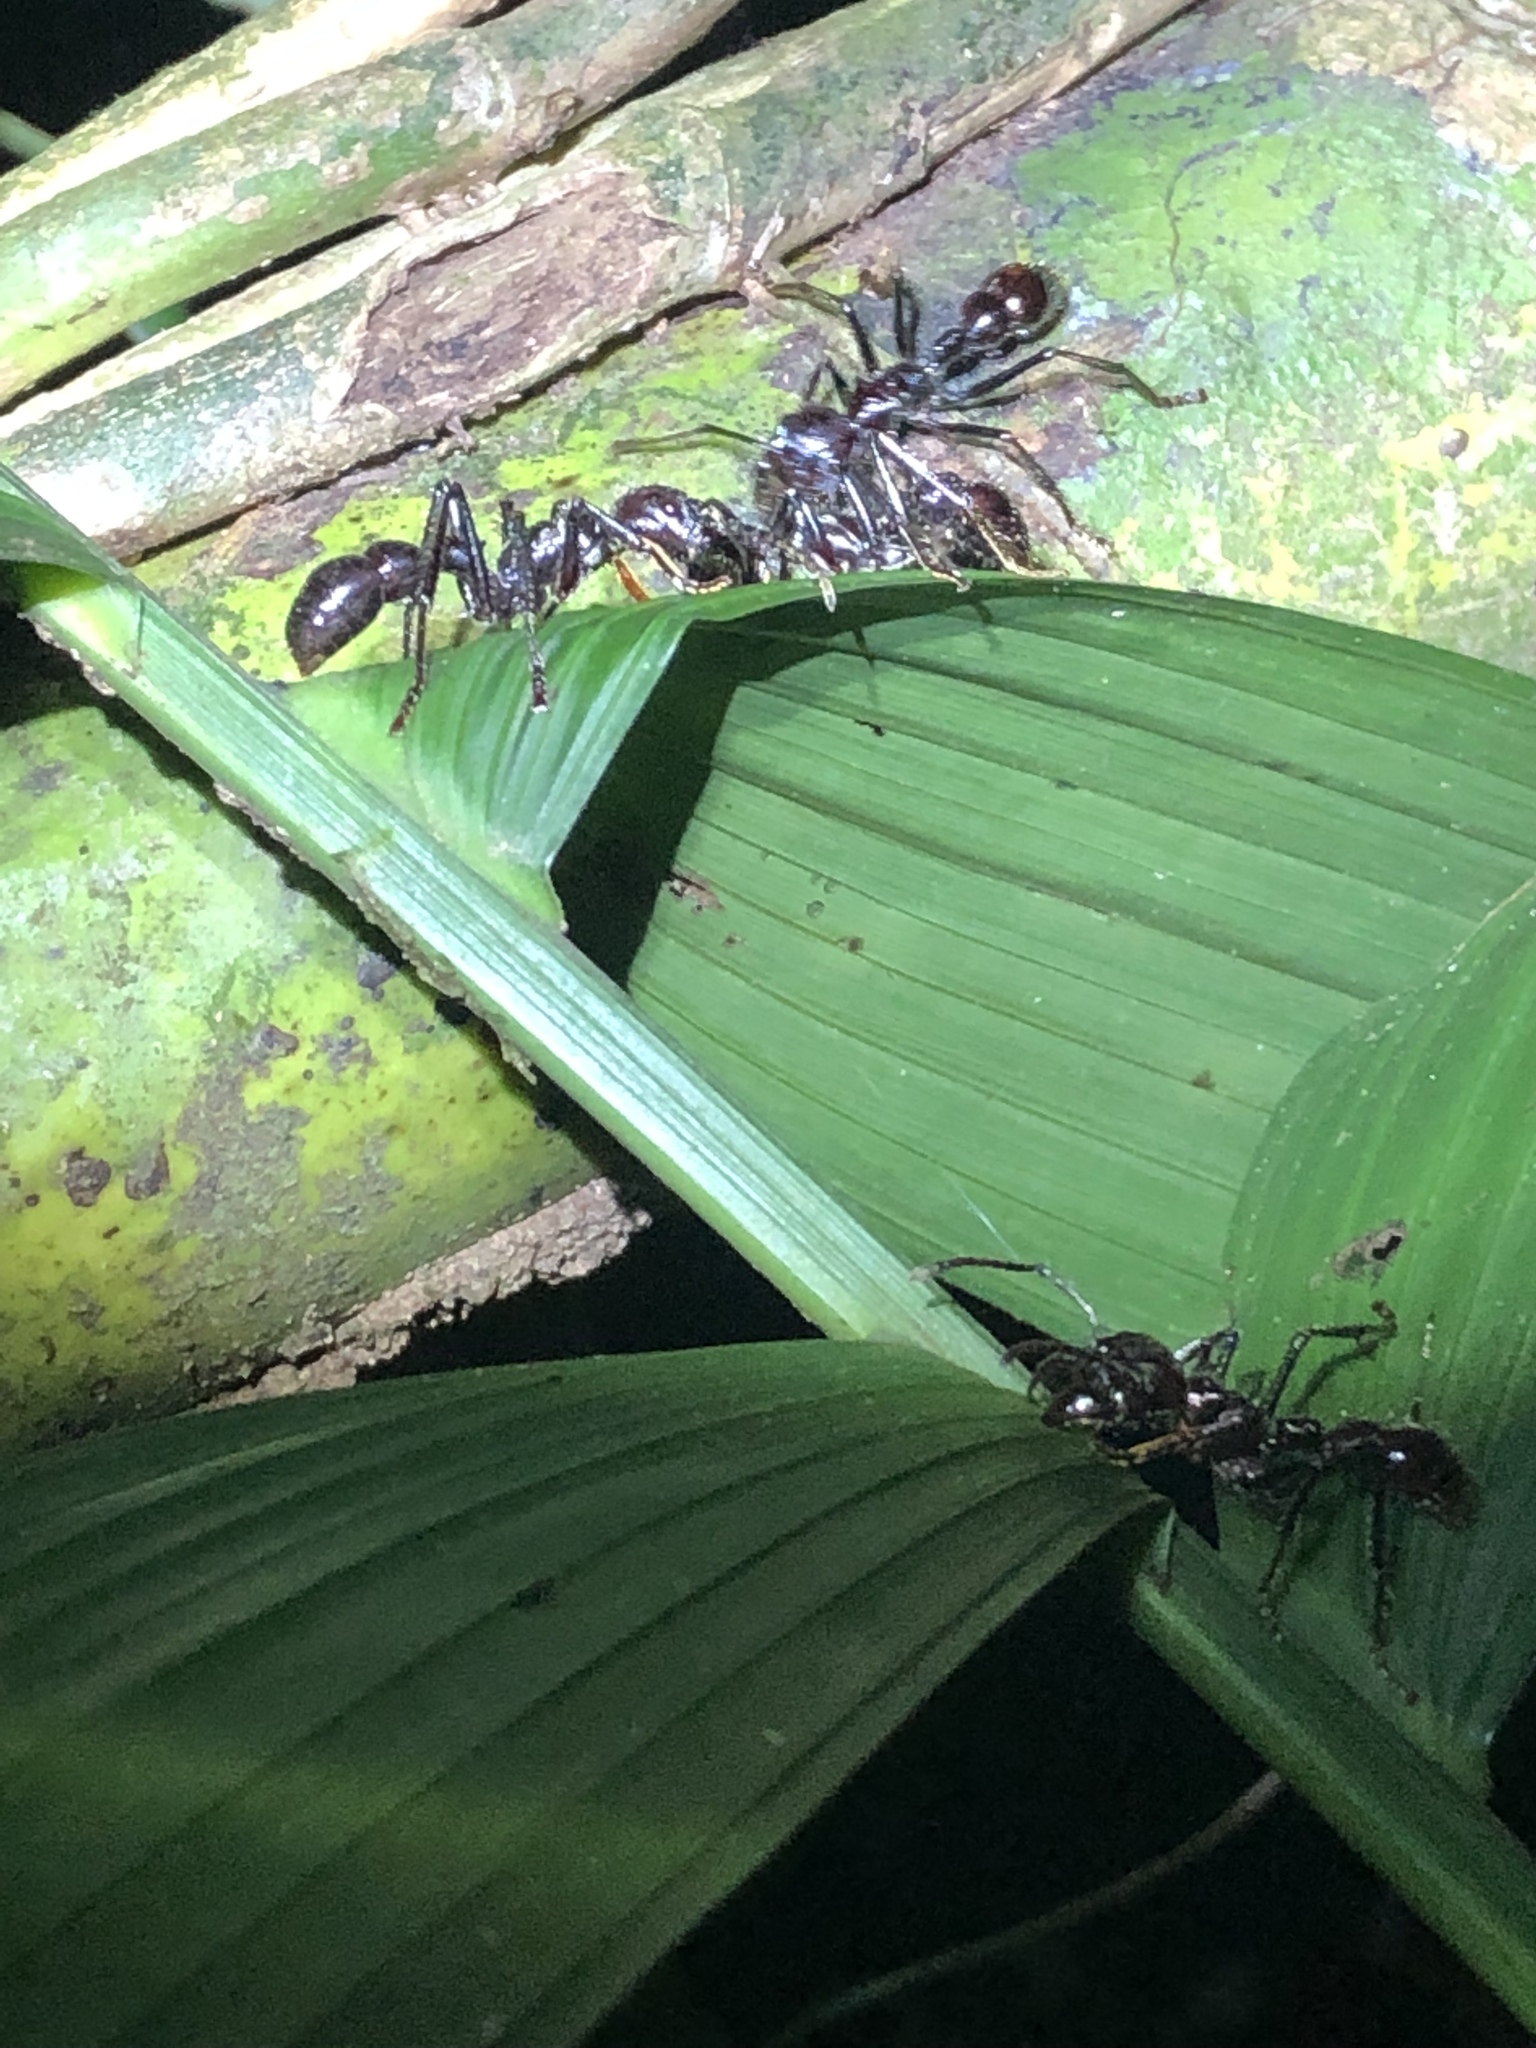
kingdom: Animalia
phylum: Arthropoda
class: Insecta
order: Hymenoptera
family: Formicidae
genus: Paraponera
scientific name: Paraponera clavata
